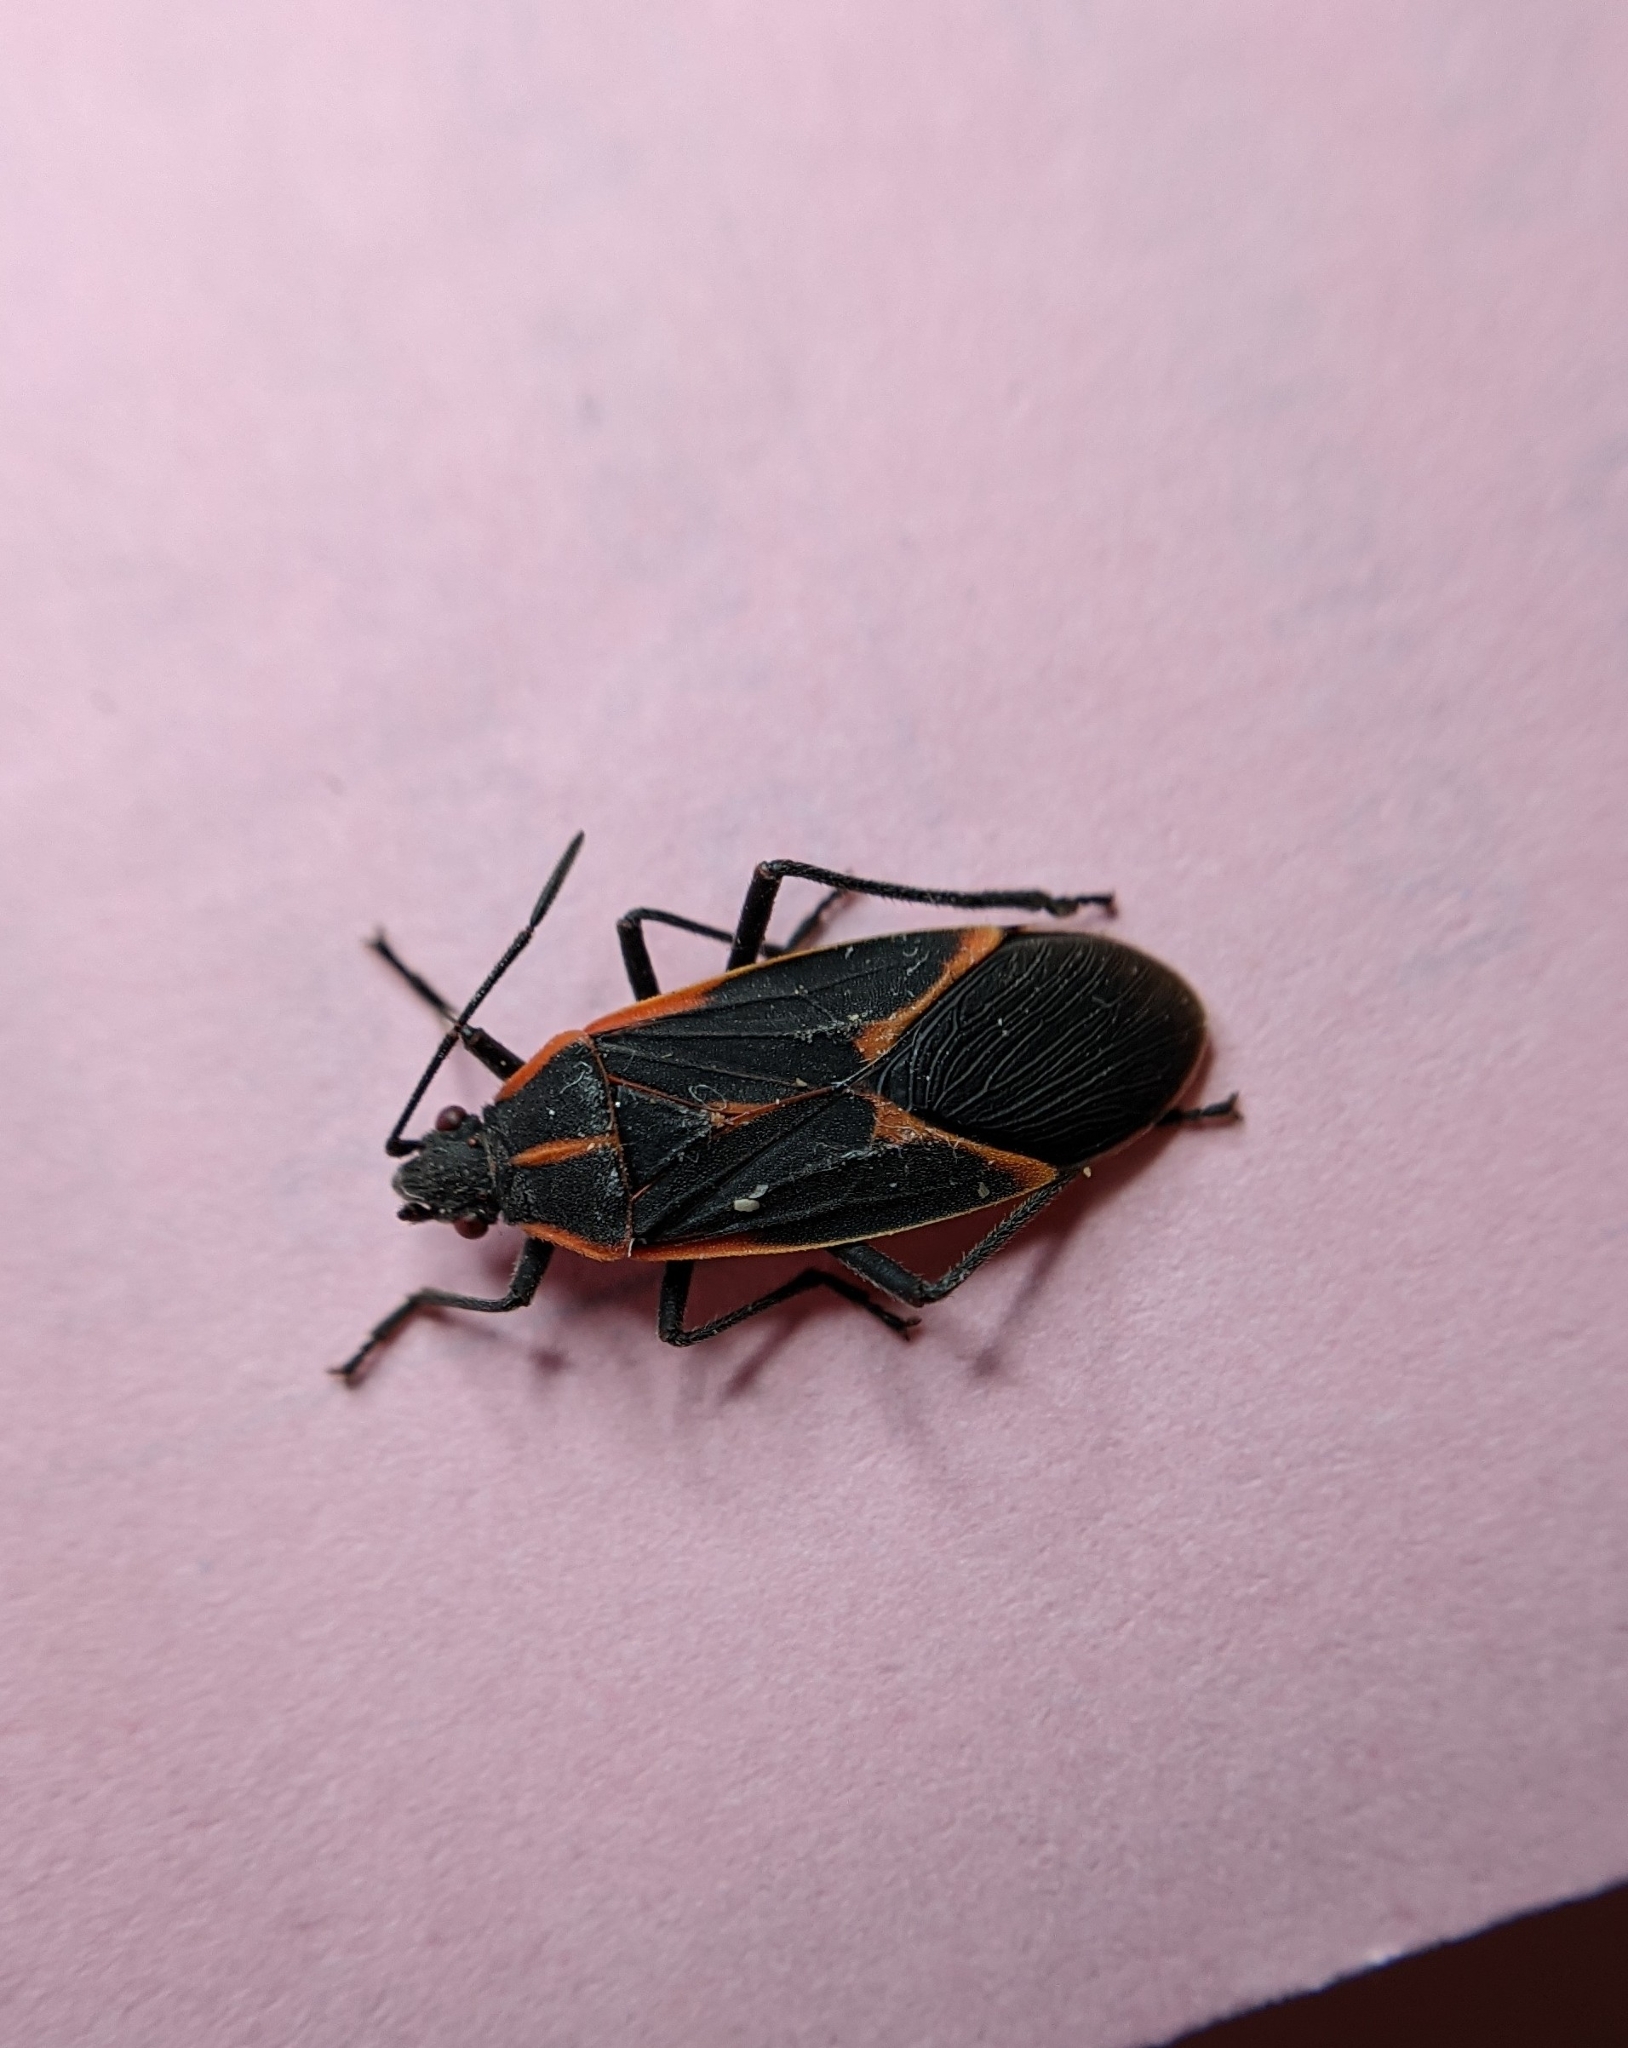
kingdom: Animalia
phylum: Arthropoda
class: Insecta
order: Hemiptera
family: Rhopalidae
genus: Boisea
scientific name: Boisea trivittata
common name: Boxelder bug
